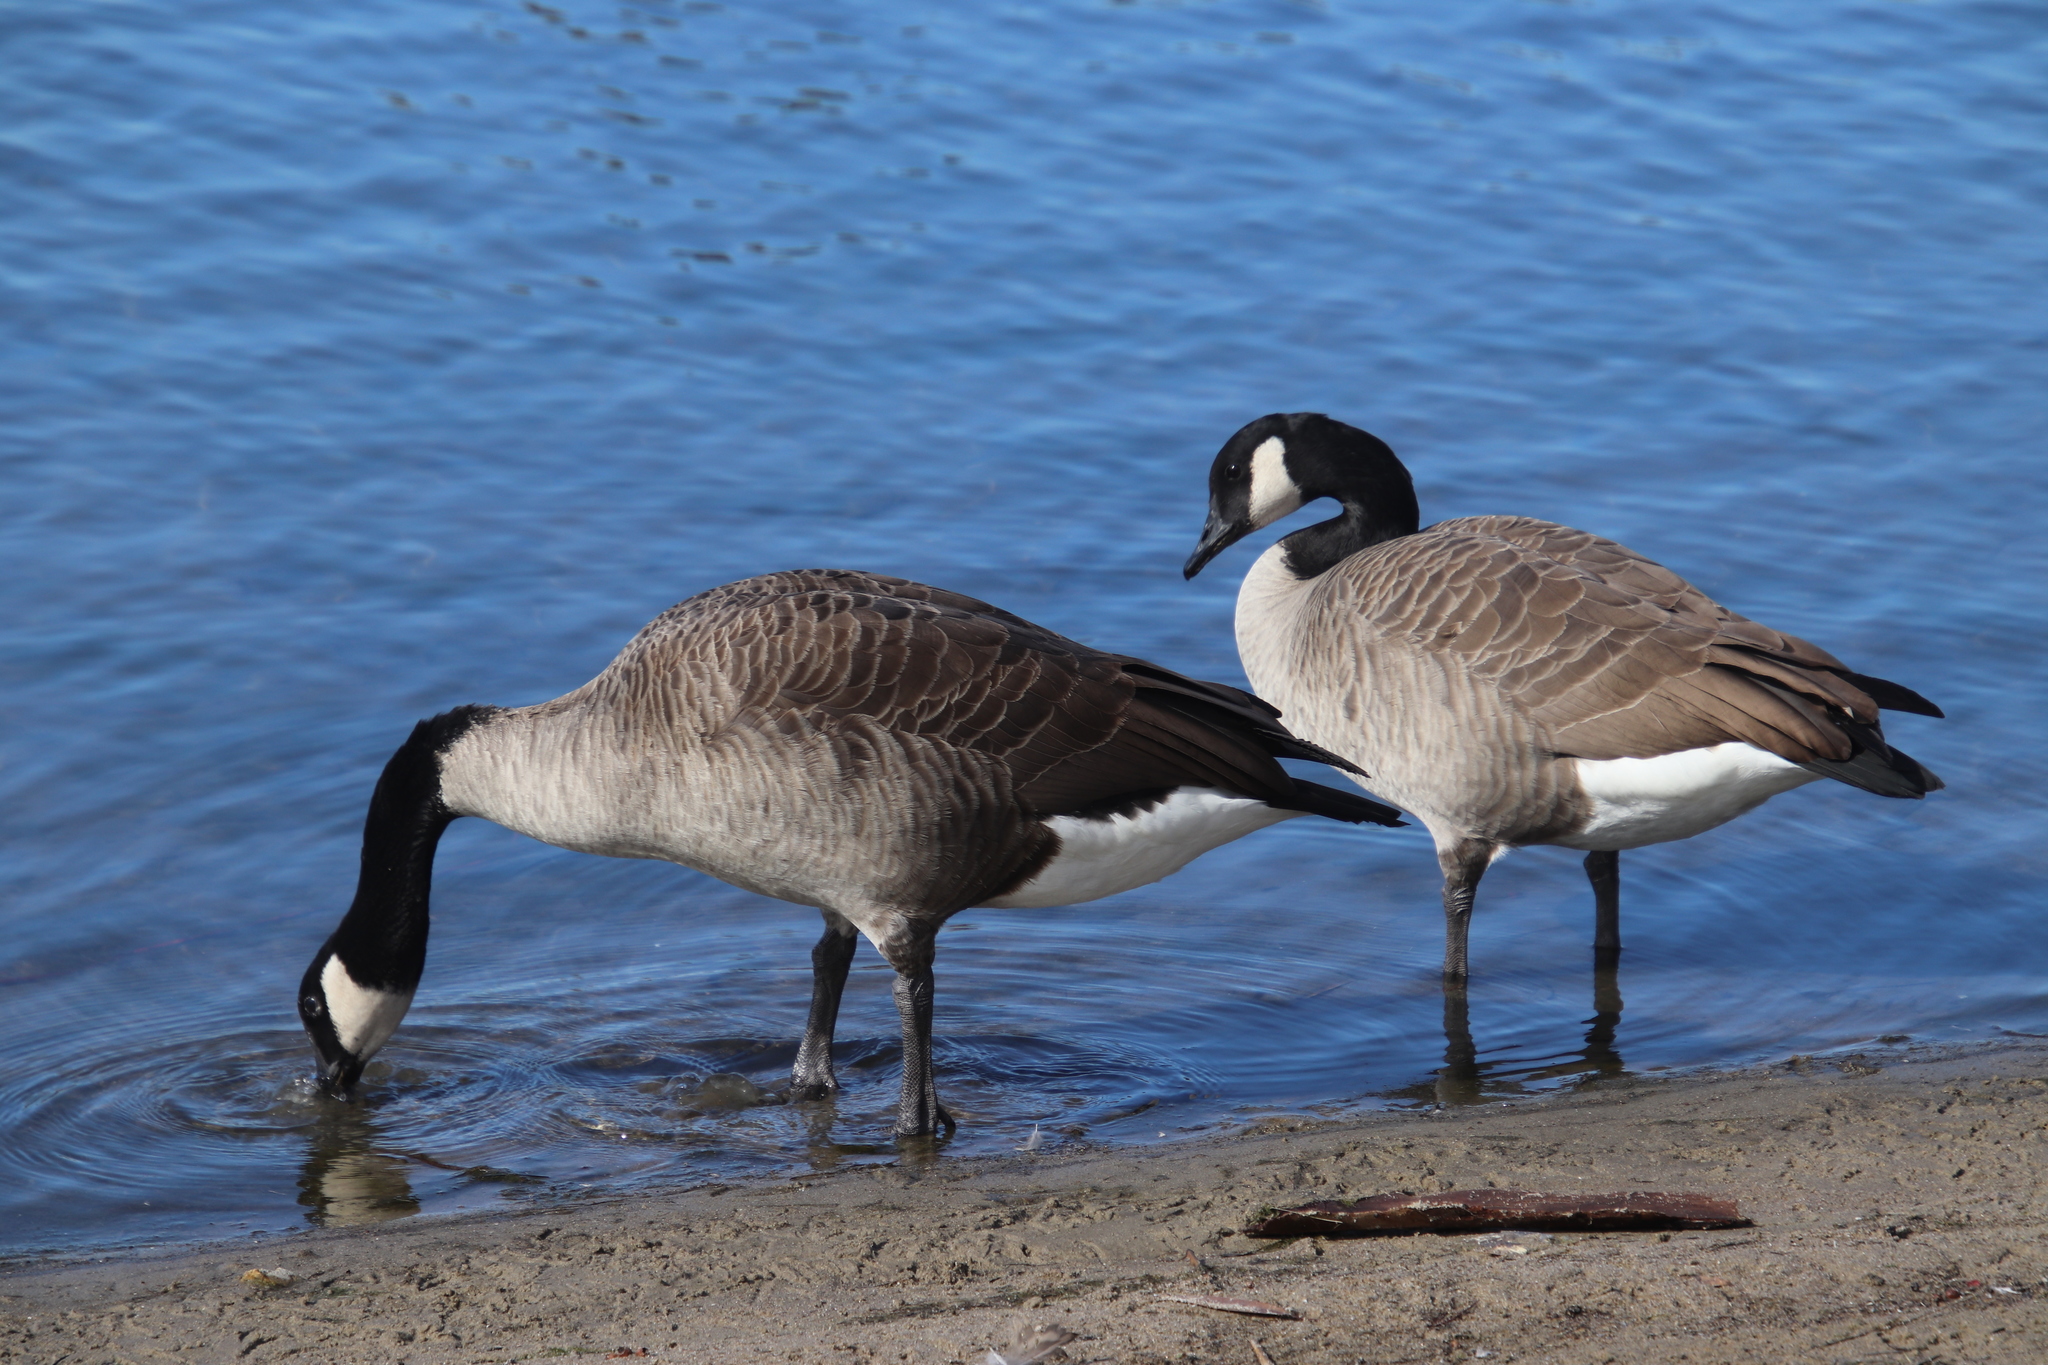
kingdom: Animalia
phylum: Chordata
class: Aves
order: Anseriformes
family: Anatidae
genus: Branta
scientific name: Branta canadensis
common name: Canada goose
